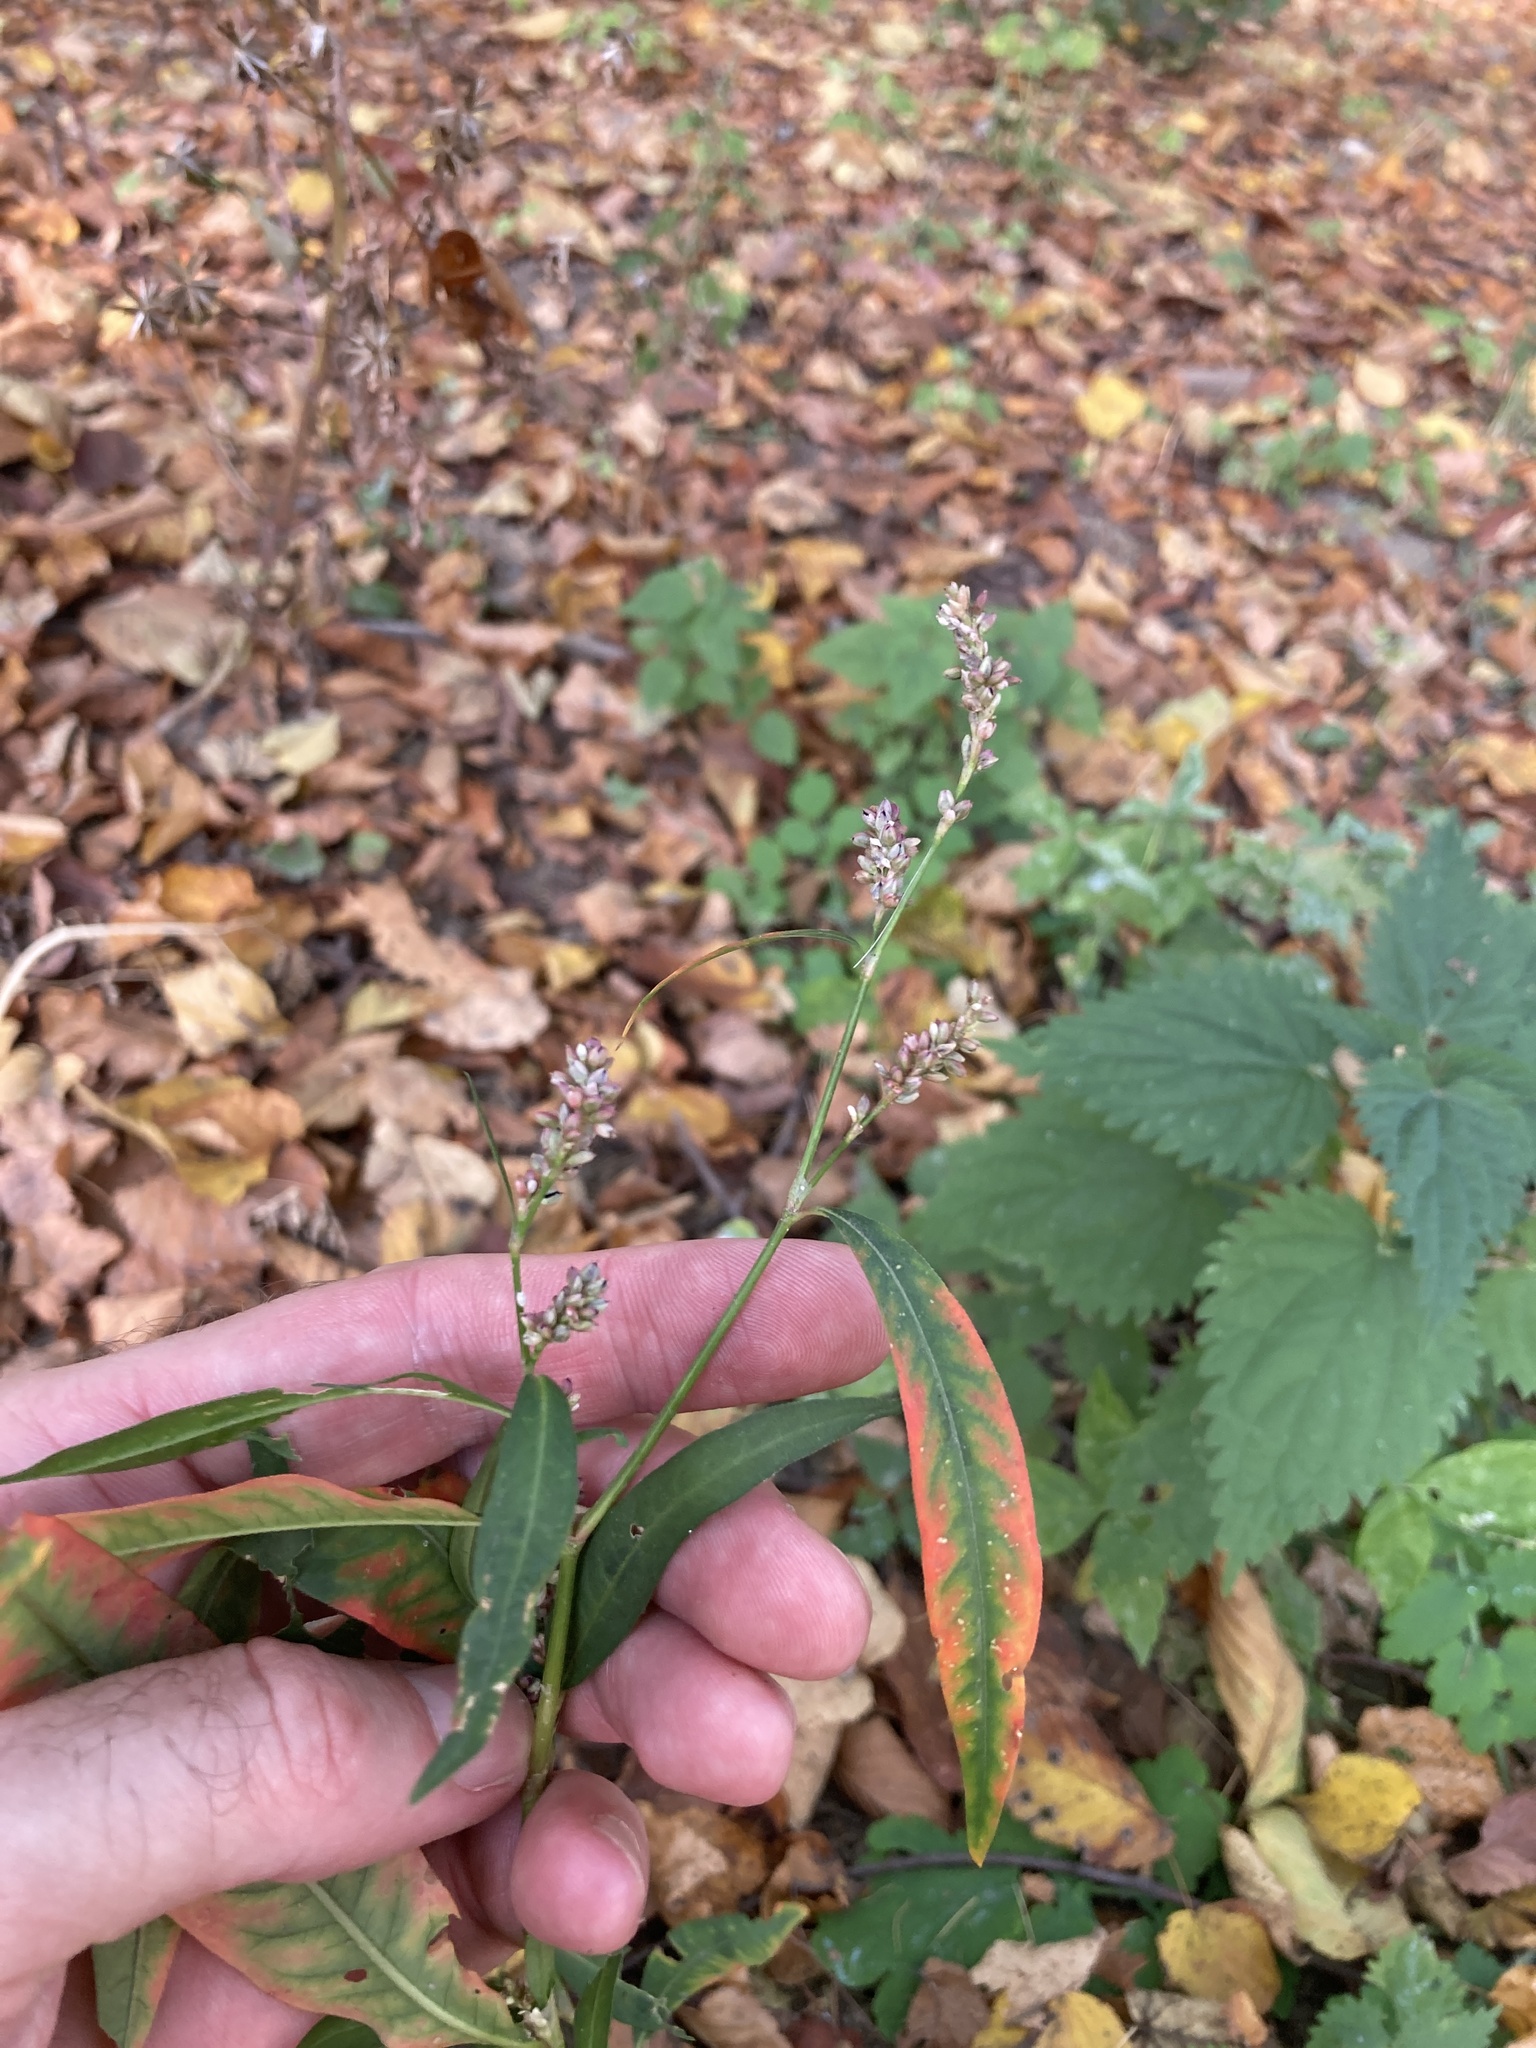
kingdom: Plantae
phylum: Tracheophyta
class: Magnoliopsida
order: Caryophyllales
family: Polygonaceae
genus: Persicaria
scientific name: Persicaria maculosa
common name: Redshank
